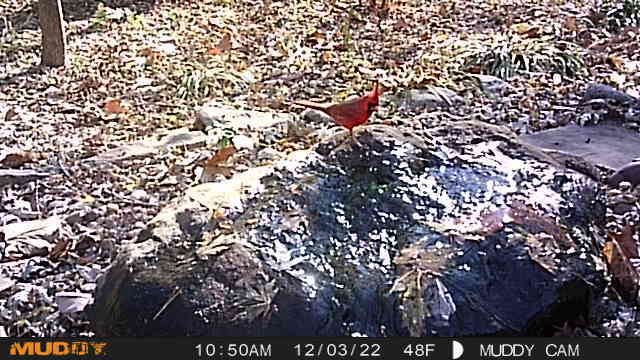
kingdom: Animalia
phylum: Chordata
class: Aves
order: Passeriformes
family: Cardinalidae
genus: Cardinalis
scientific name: Cardinalis cardinalis
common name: Northern cardinal
